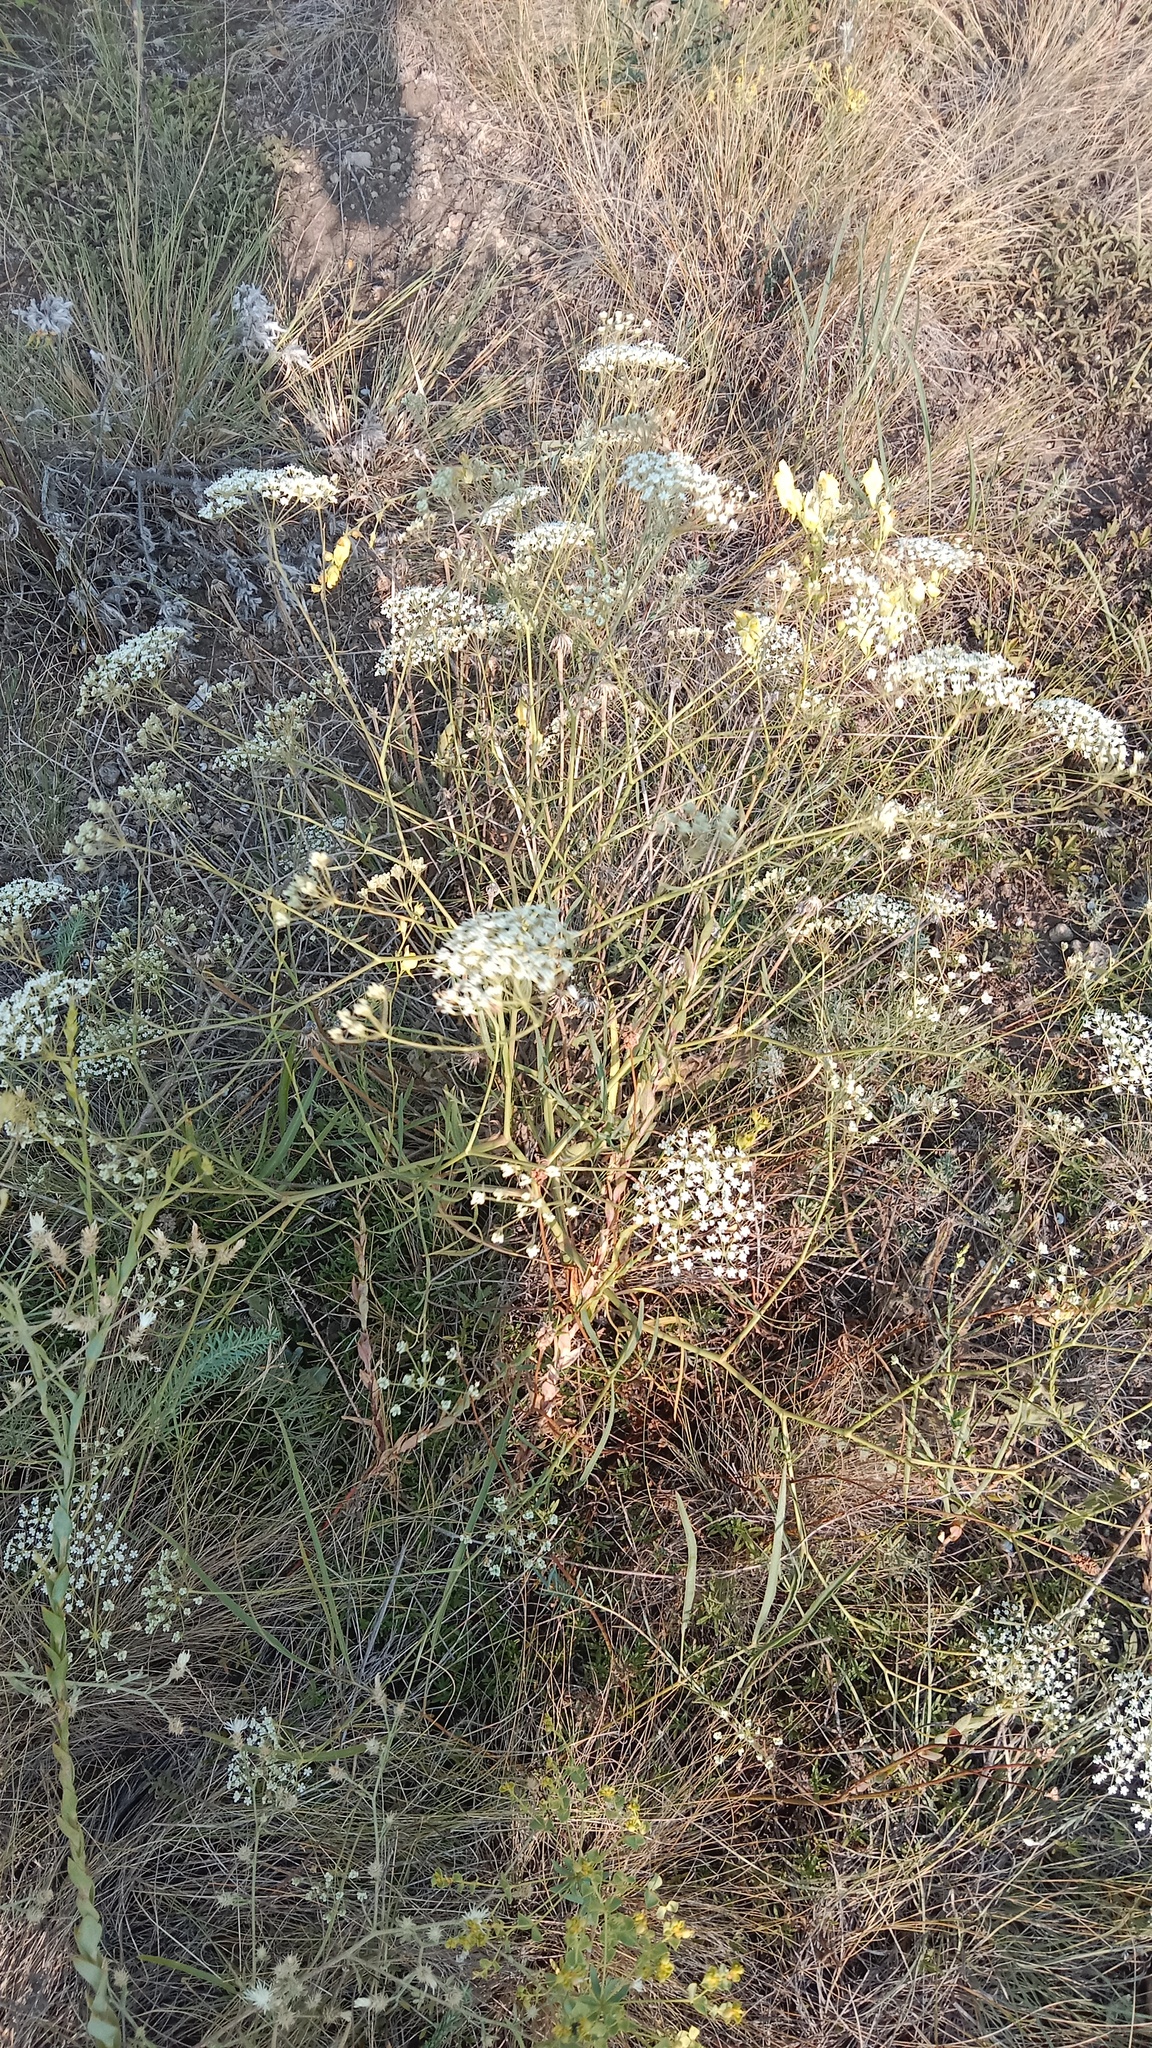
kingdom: Plantae
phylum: Tracheophyta
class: Magnoliopsida
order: Apiales
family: Apiaceae
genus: Falcaria
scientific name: Falcaria vulgaris
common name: Longleaf
